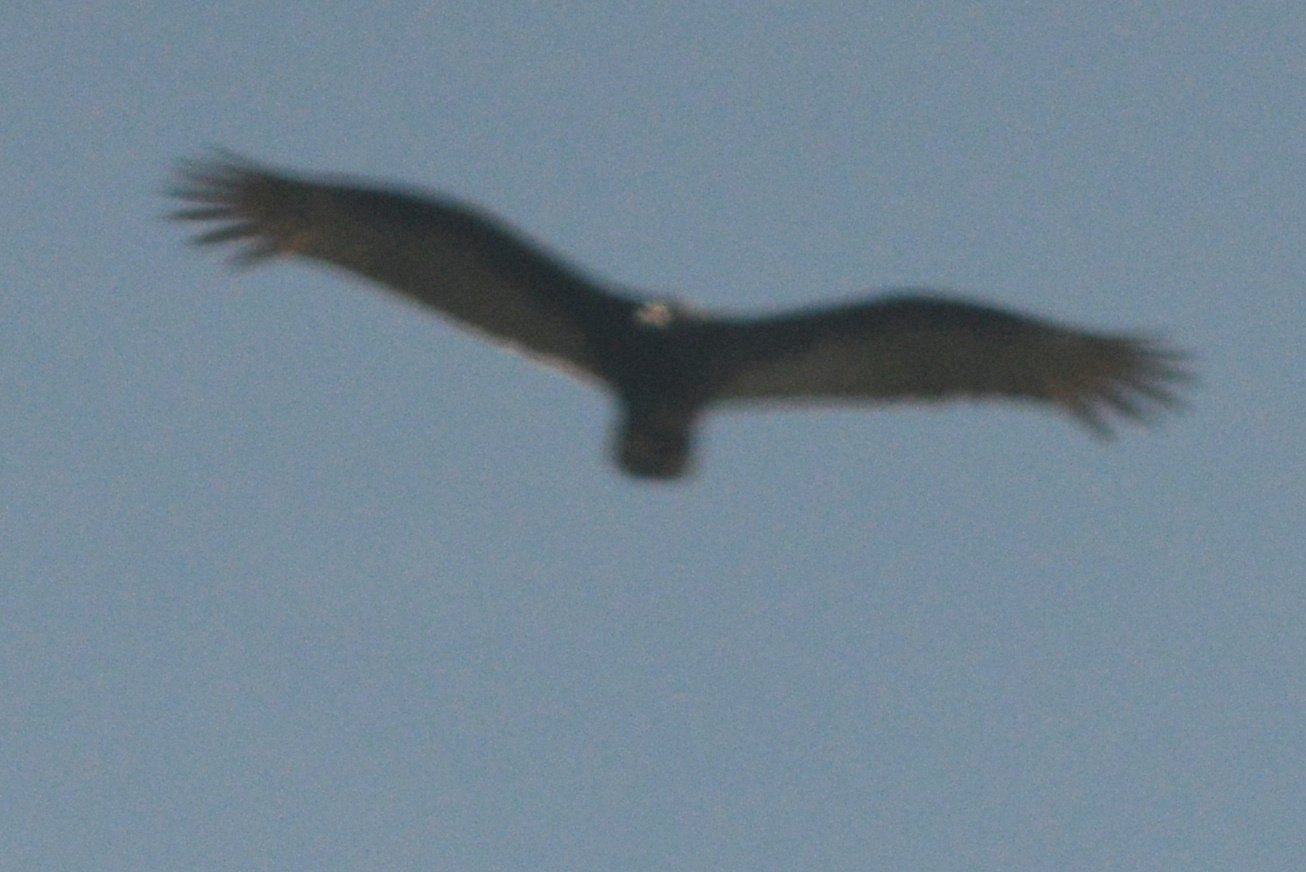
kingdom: Animalia
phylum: Chordata
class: Aves
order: Accipitriformes
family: Cathartidae
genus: Cathartes
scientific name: Cathartes aura
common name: Turkey vulture
